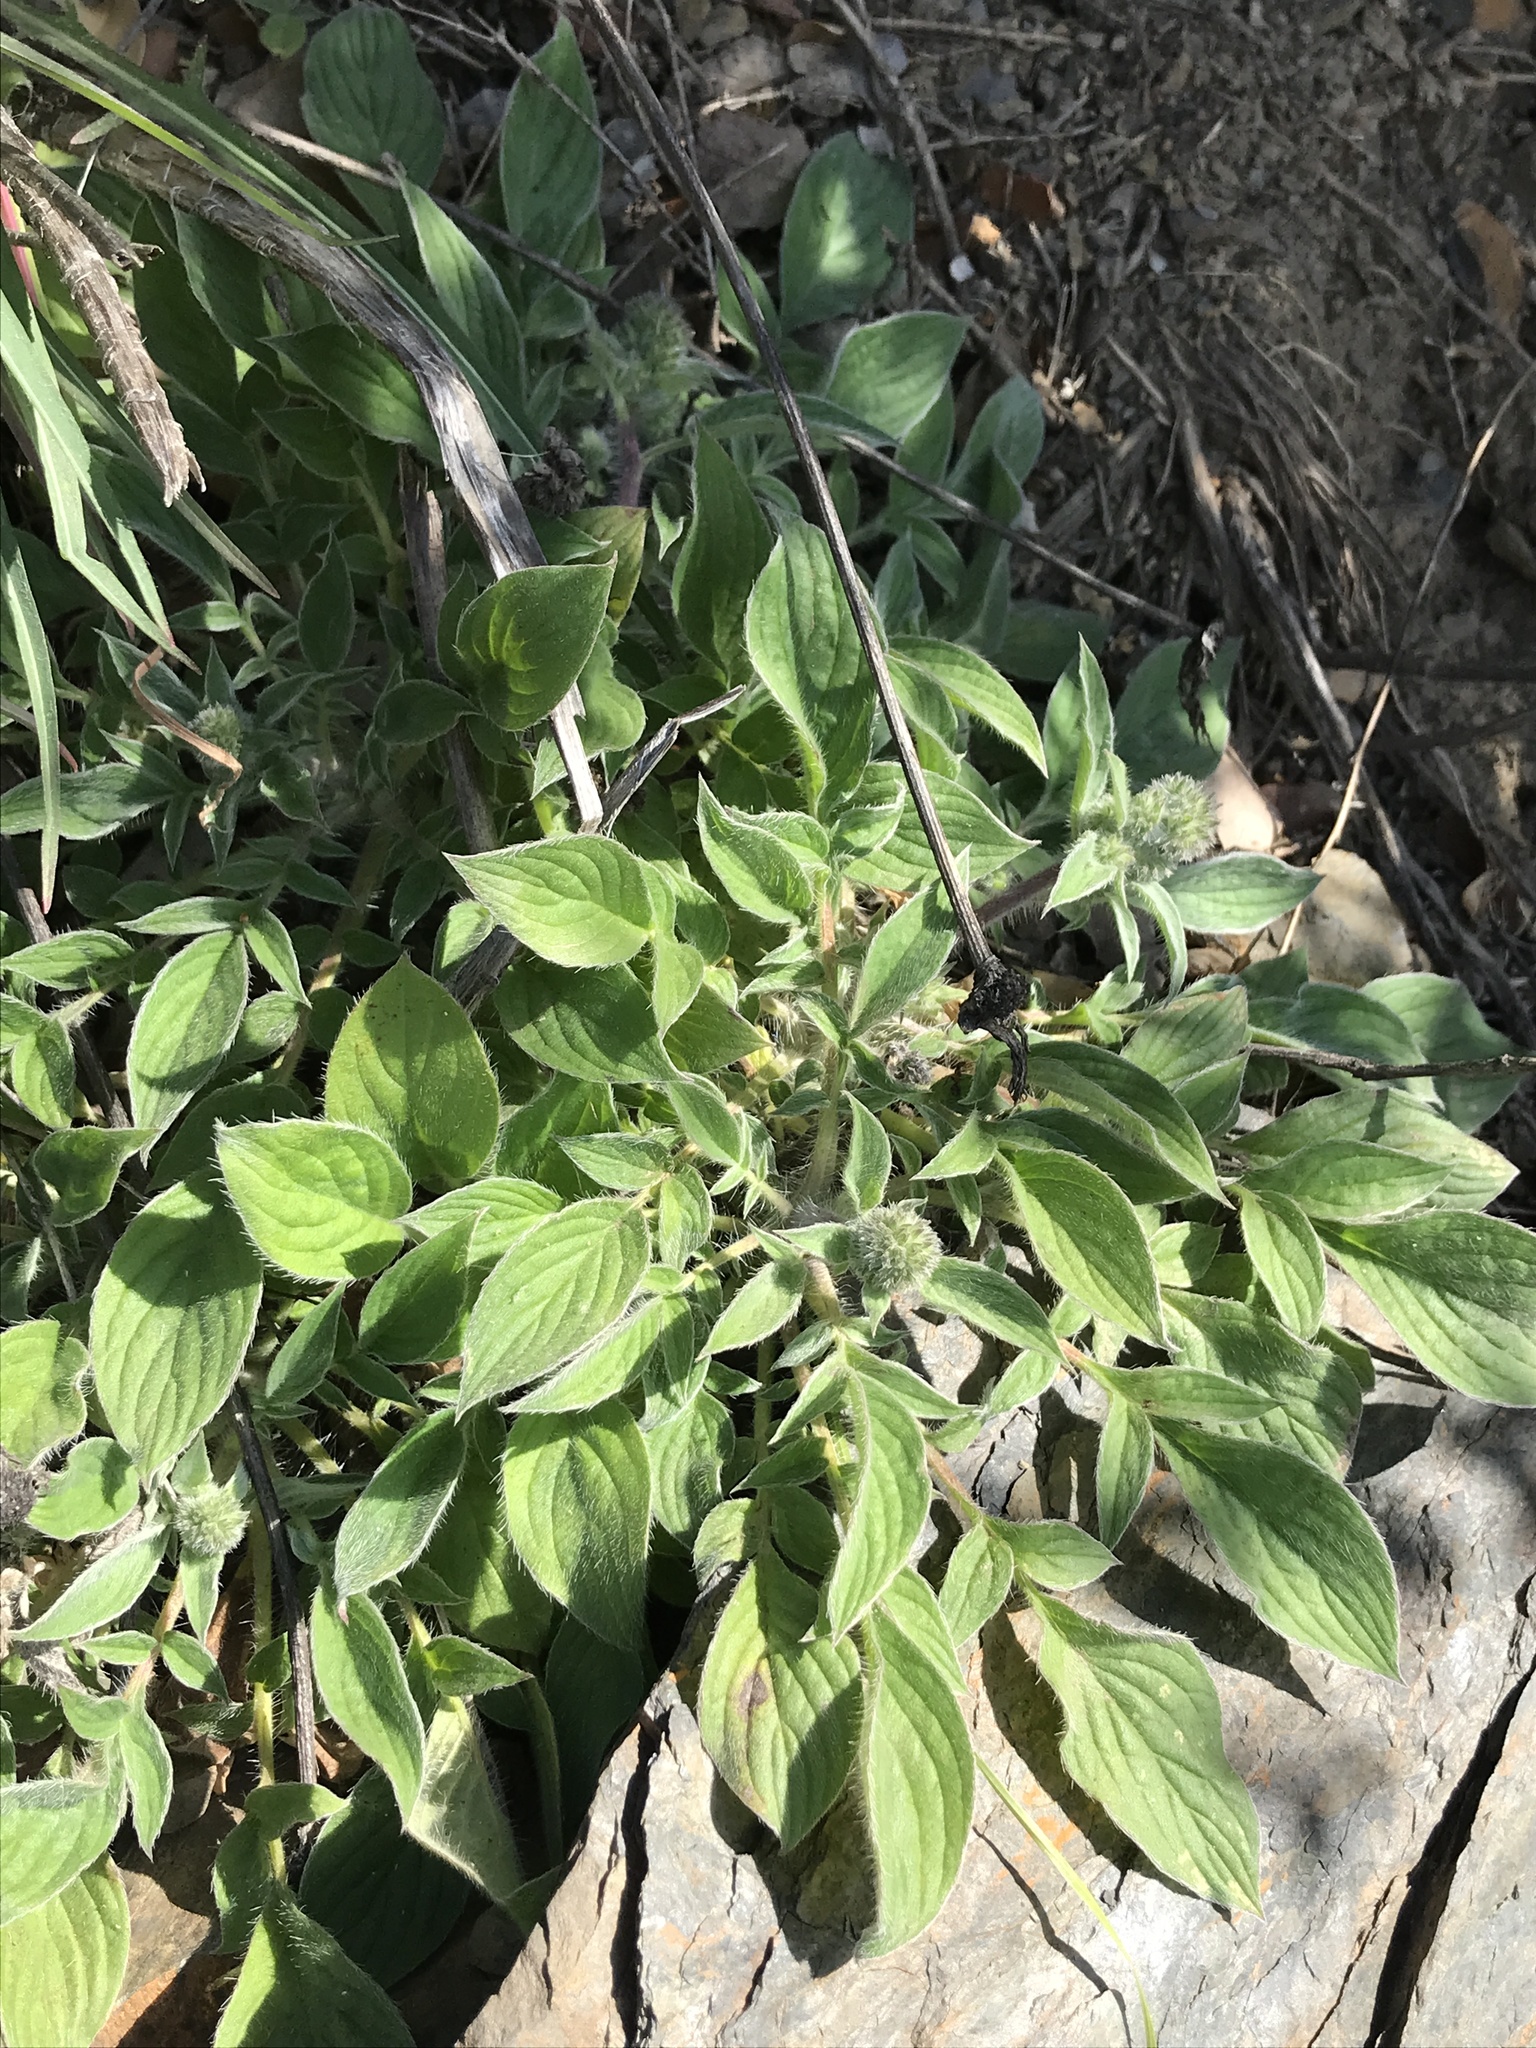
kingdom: Plantae
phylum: Tracheophyta
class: Magnoliopsida
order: Boraginales
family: Hydrophyllaceae
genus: Phacelia
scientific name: Phacelia imbricata
